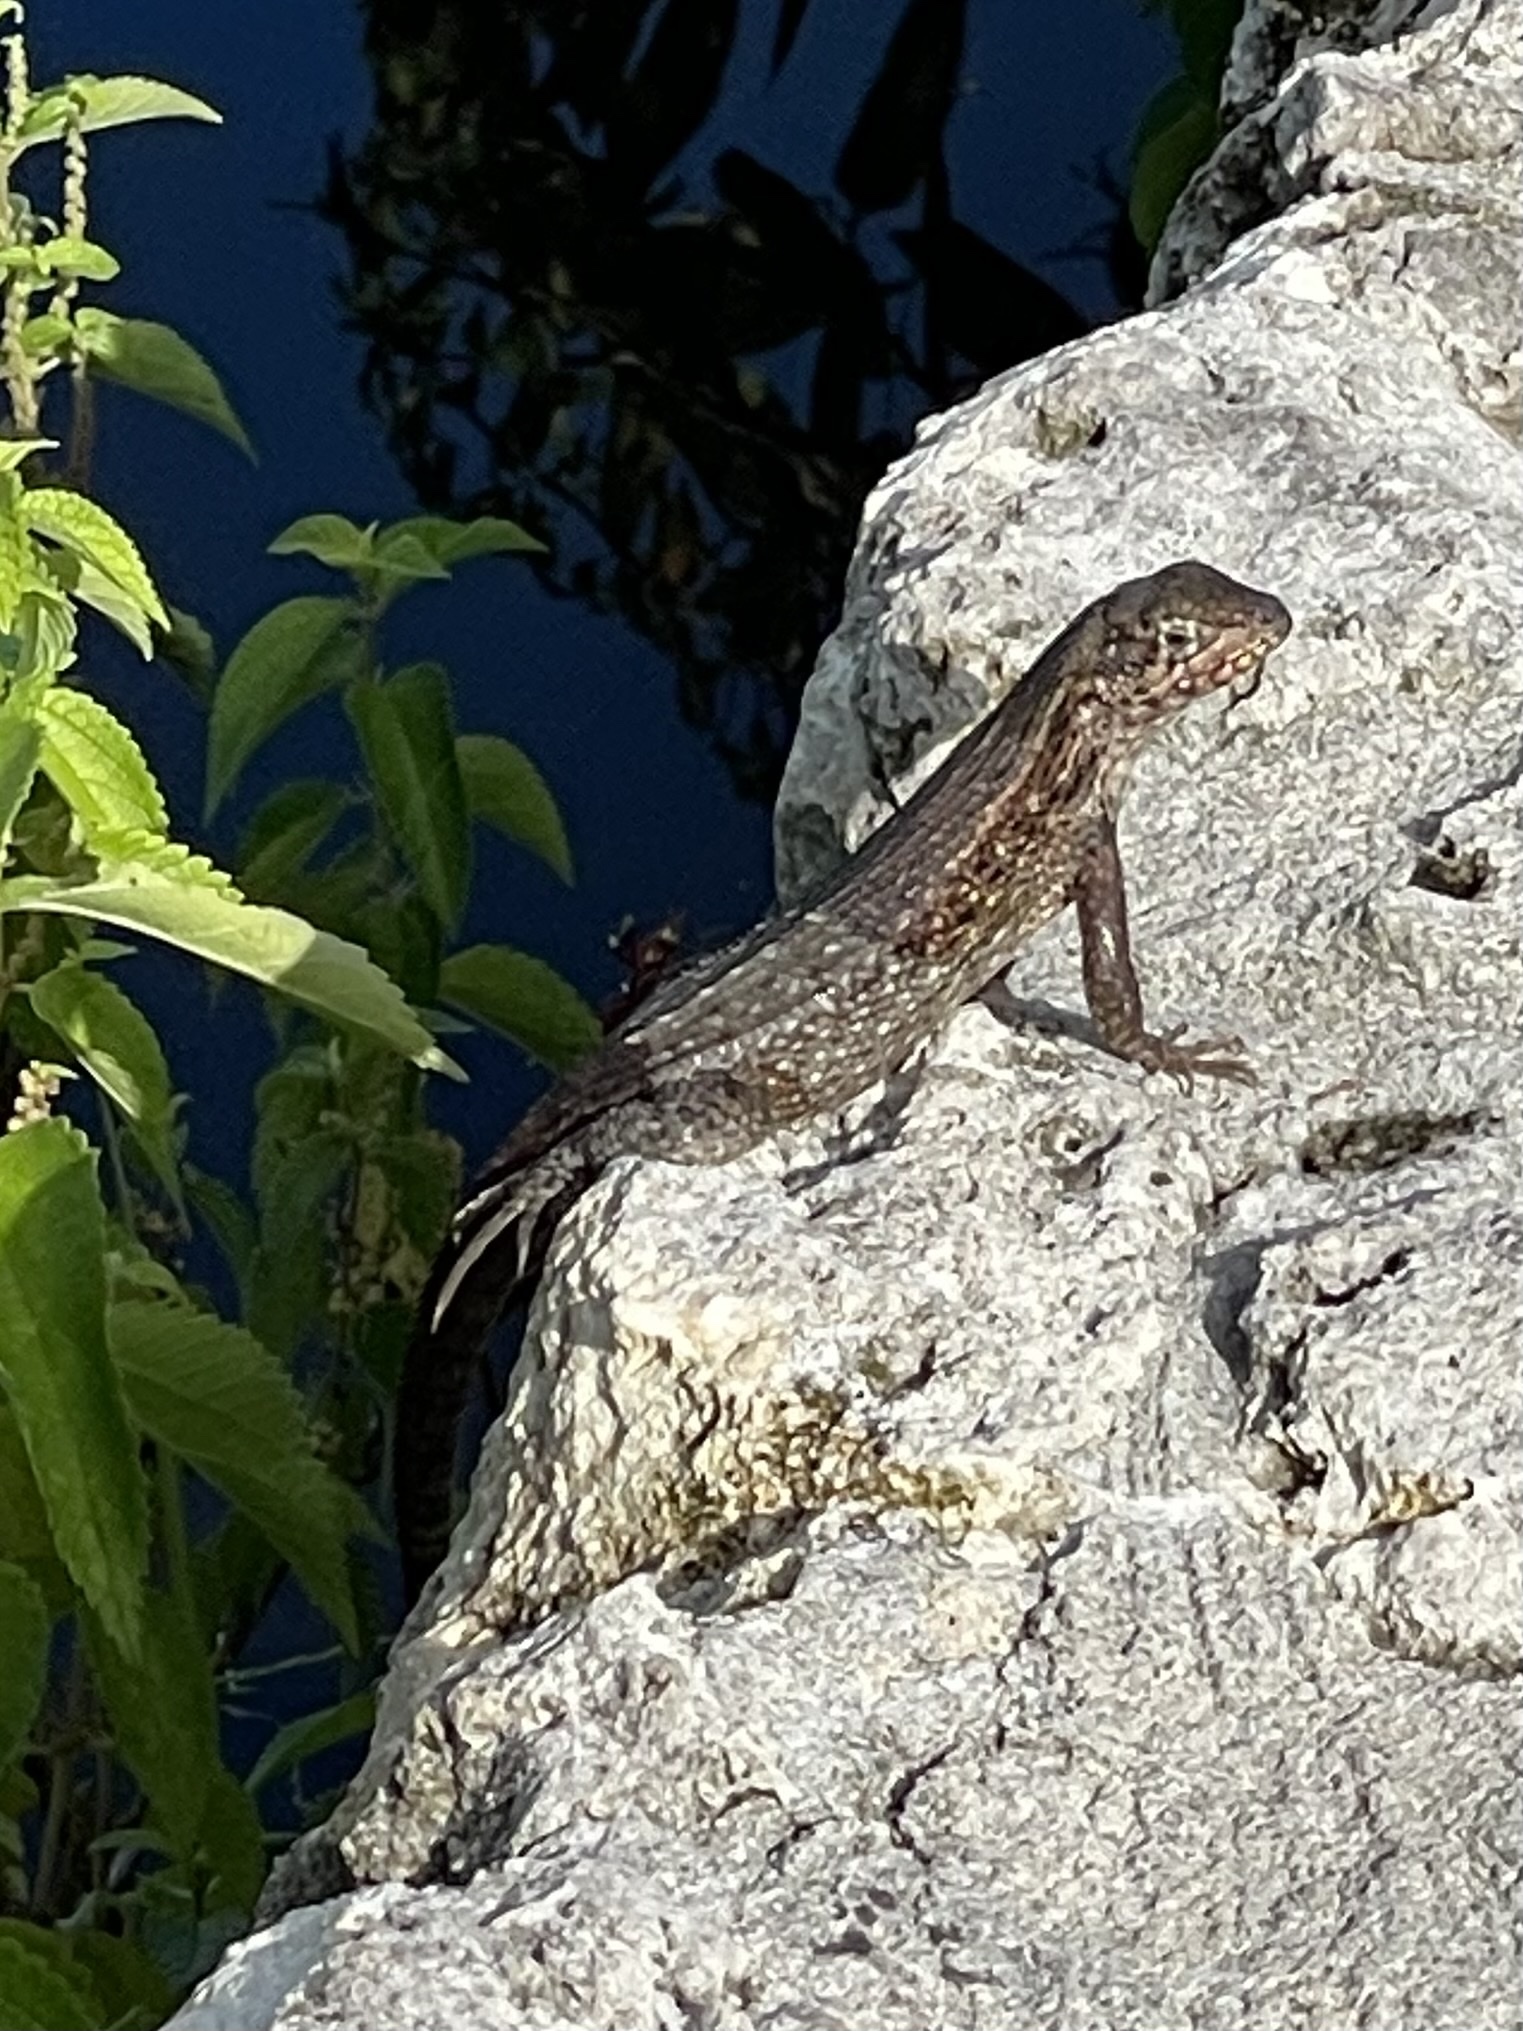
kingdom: Animalia
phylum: Chordata
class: Squamata
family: Leiocephalidae
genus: Leiocephalus
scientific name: Leiocephalus carinatus
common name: Northern curly-tailed lizard
